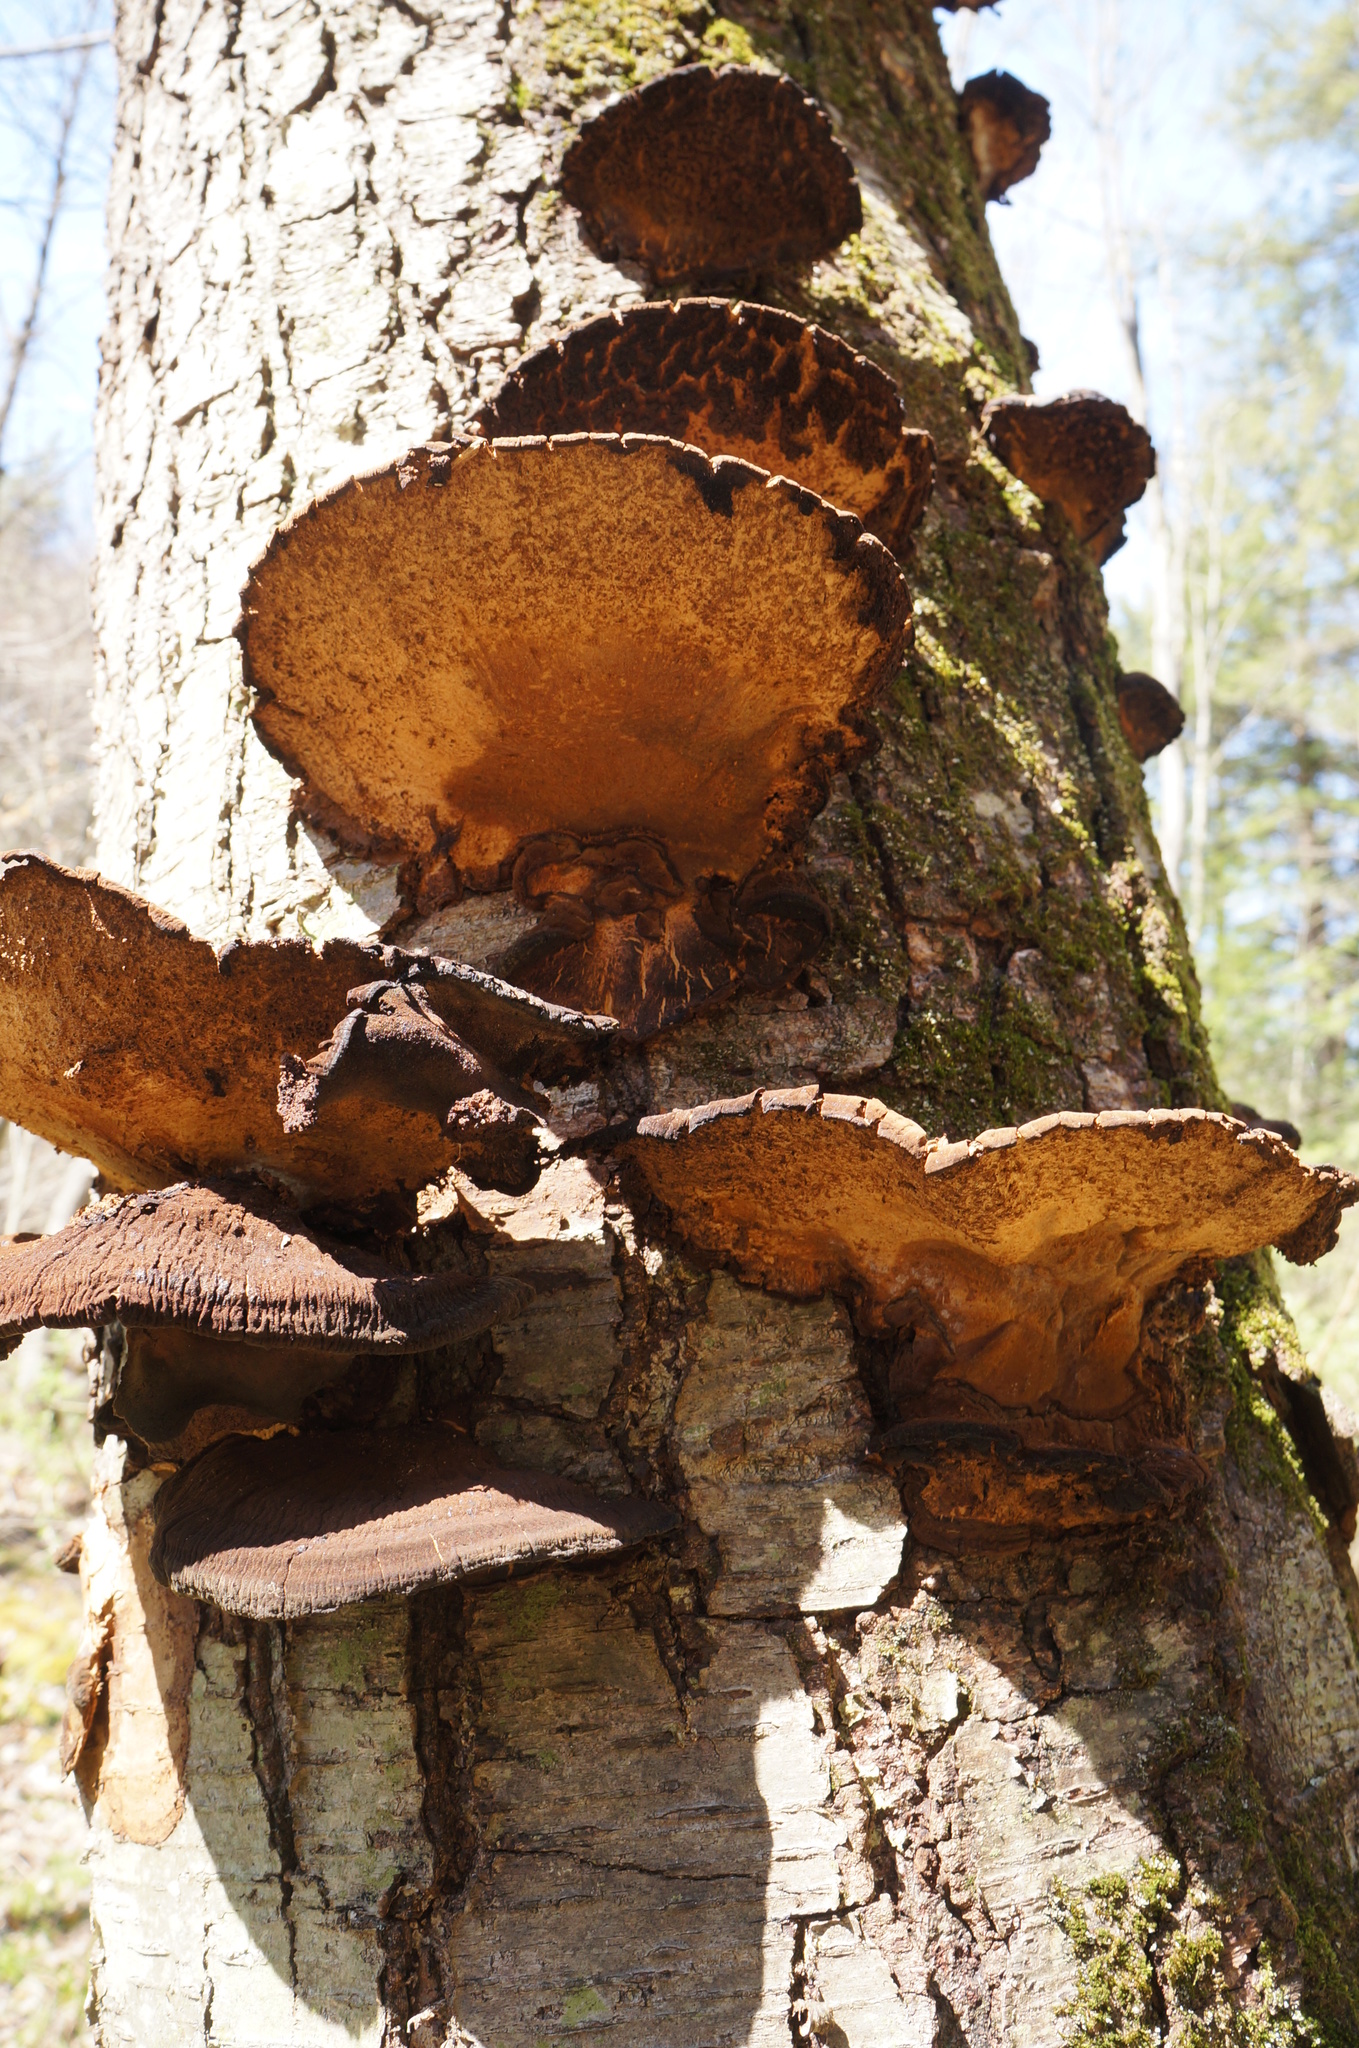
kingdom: Fungi
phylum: Basidiomycota
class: Agaricomycetes
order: Polyporales
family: Ischnodermataceae
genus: Ischnoderma
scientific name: Ischnoderma resinosum
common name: Resinous polypore
